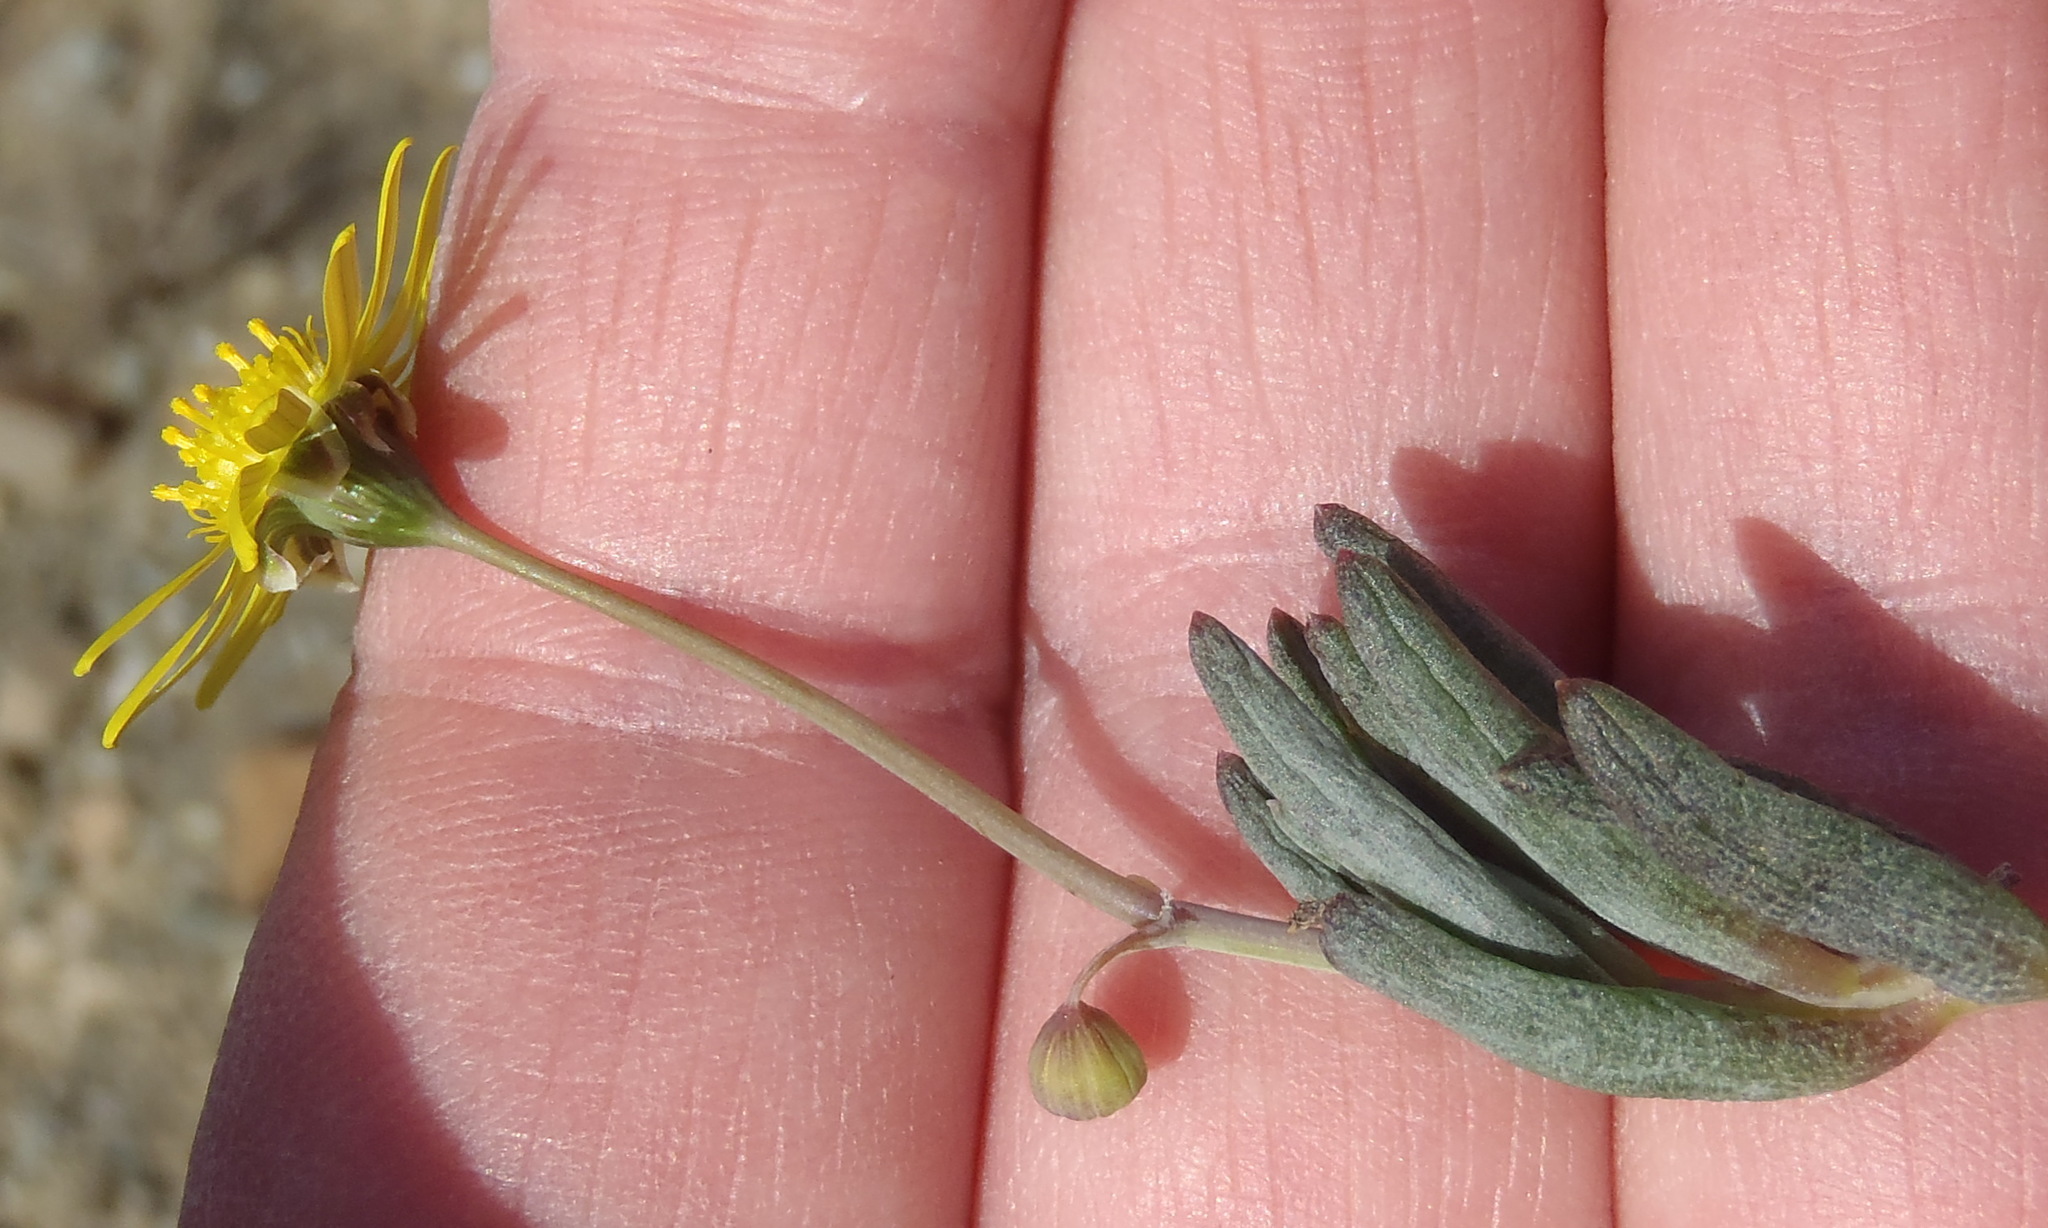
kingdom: Plantae
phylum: Tracheophyta
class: Magnoliopsida
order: Asterales
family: Asteraceae
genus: Crassothonna
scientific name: Crassothonna cacalioides
